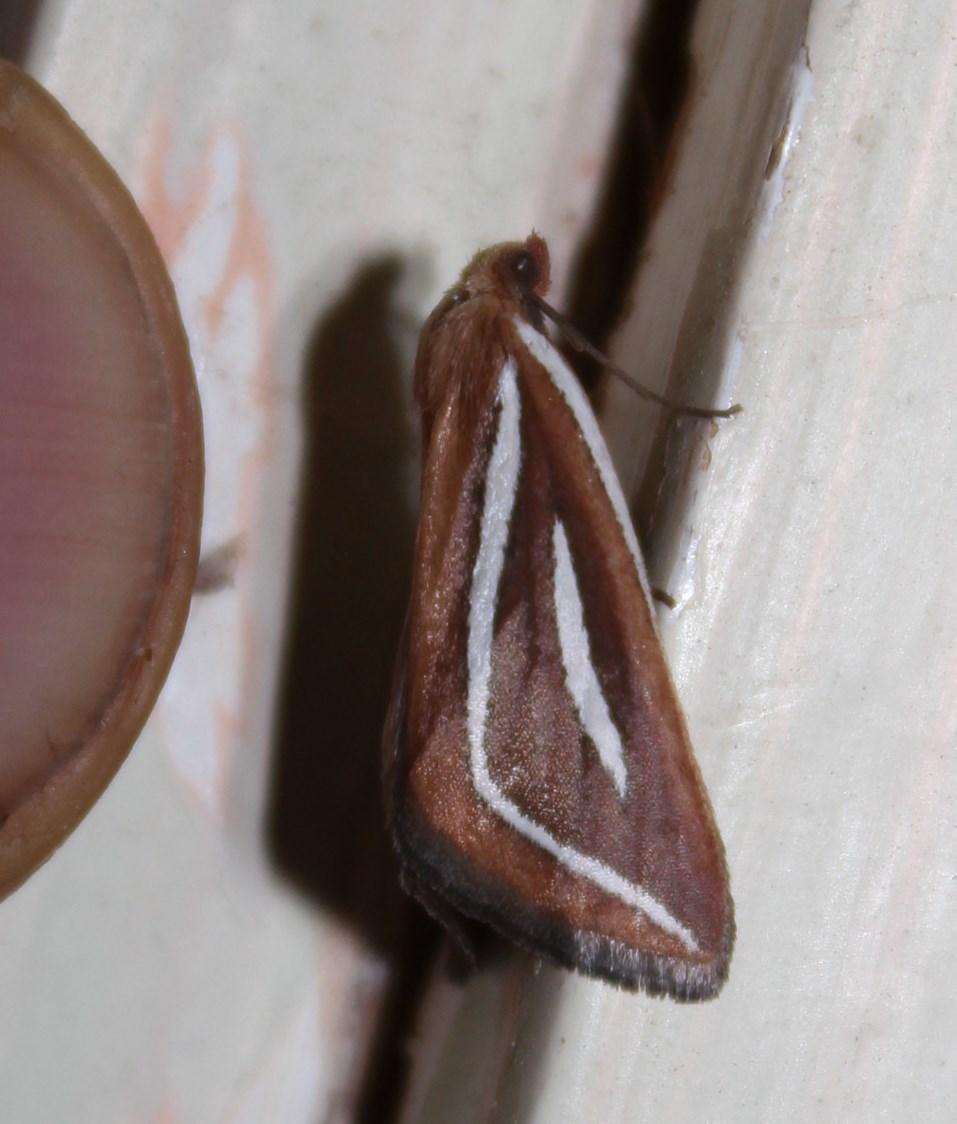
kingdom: Animalia
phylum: Arthropoda
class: Insecta
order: Lepidoptera
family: Geometridae
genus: Pseudomaenas
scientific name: Pseudomaenas leucograpta
